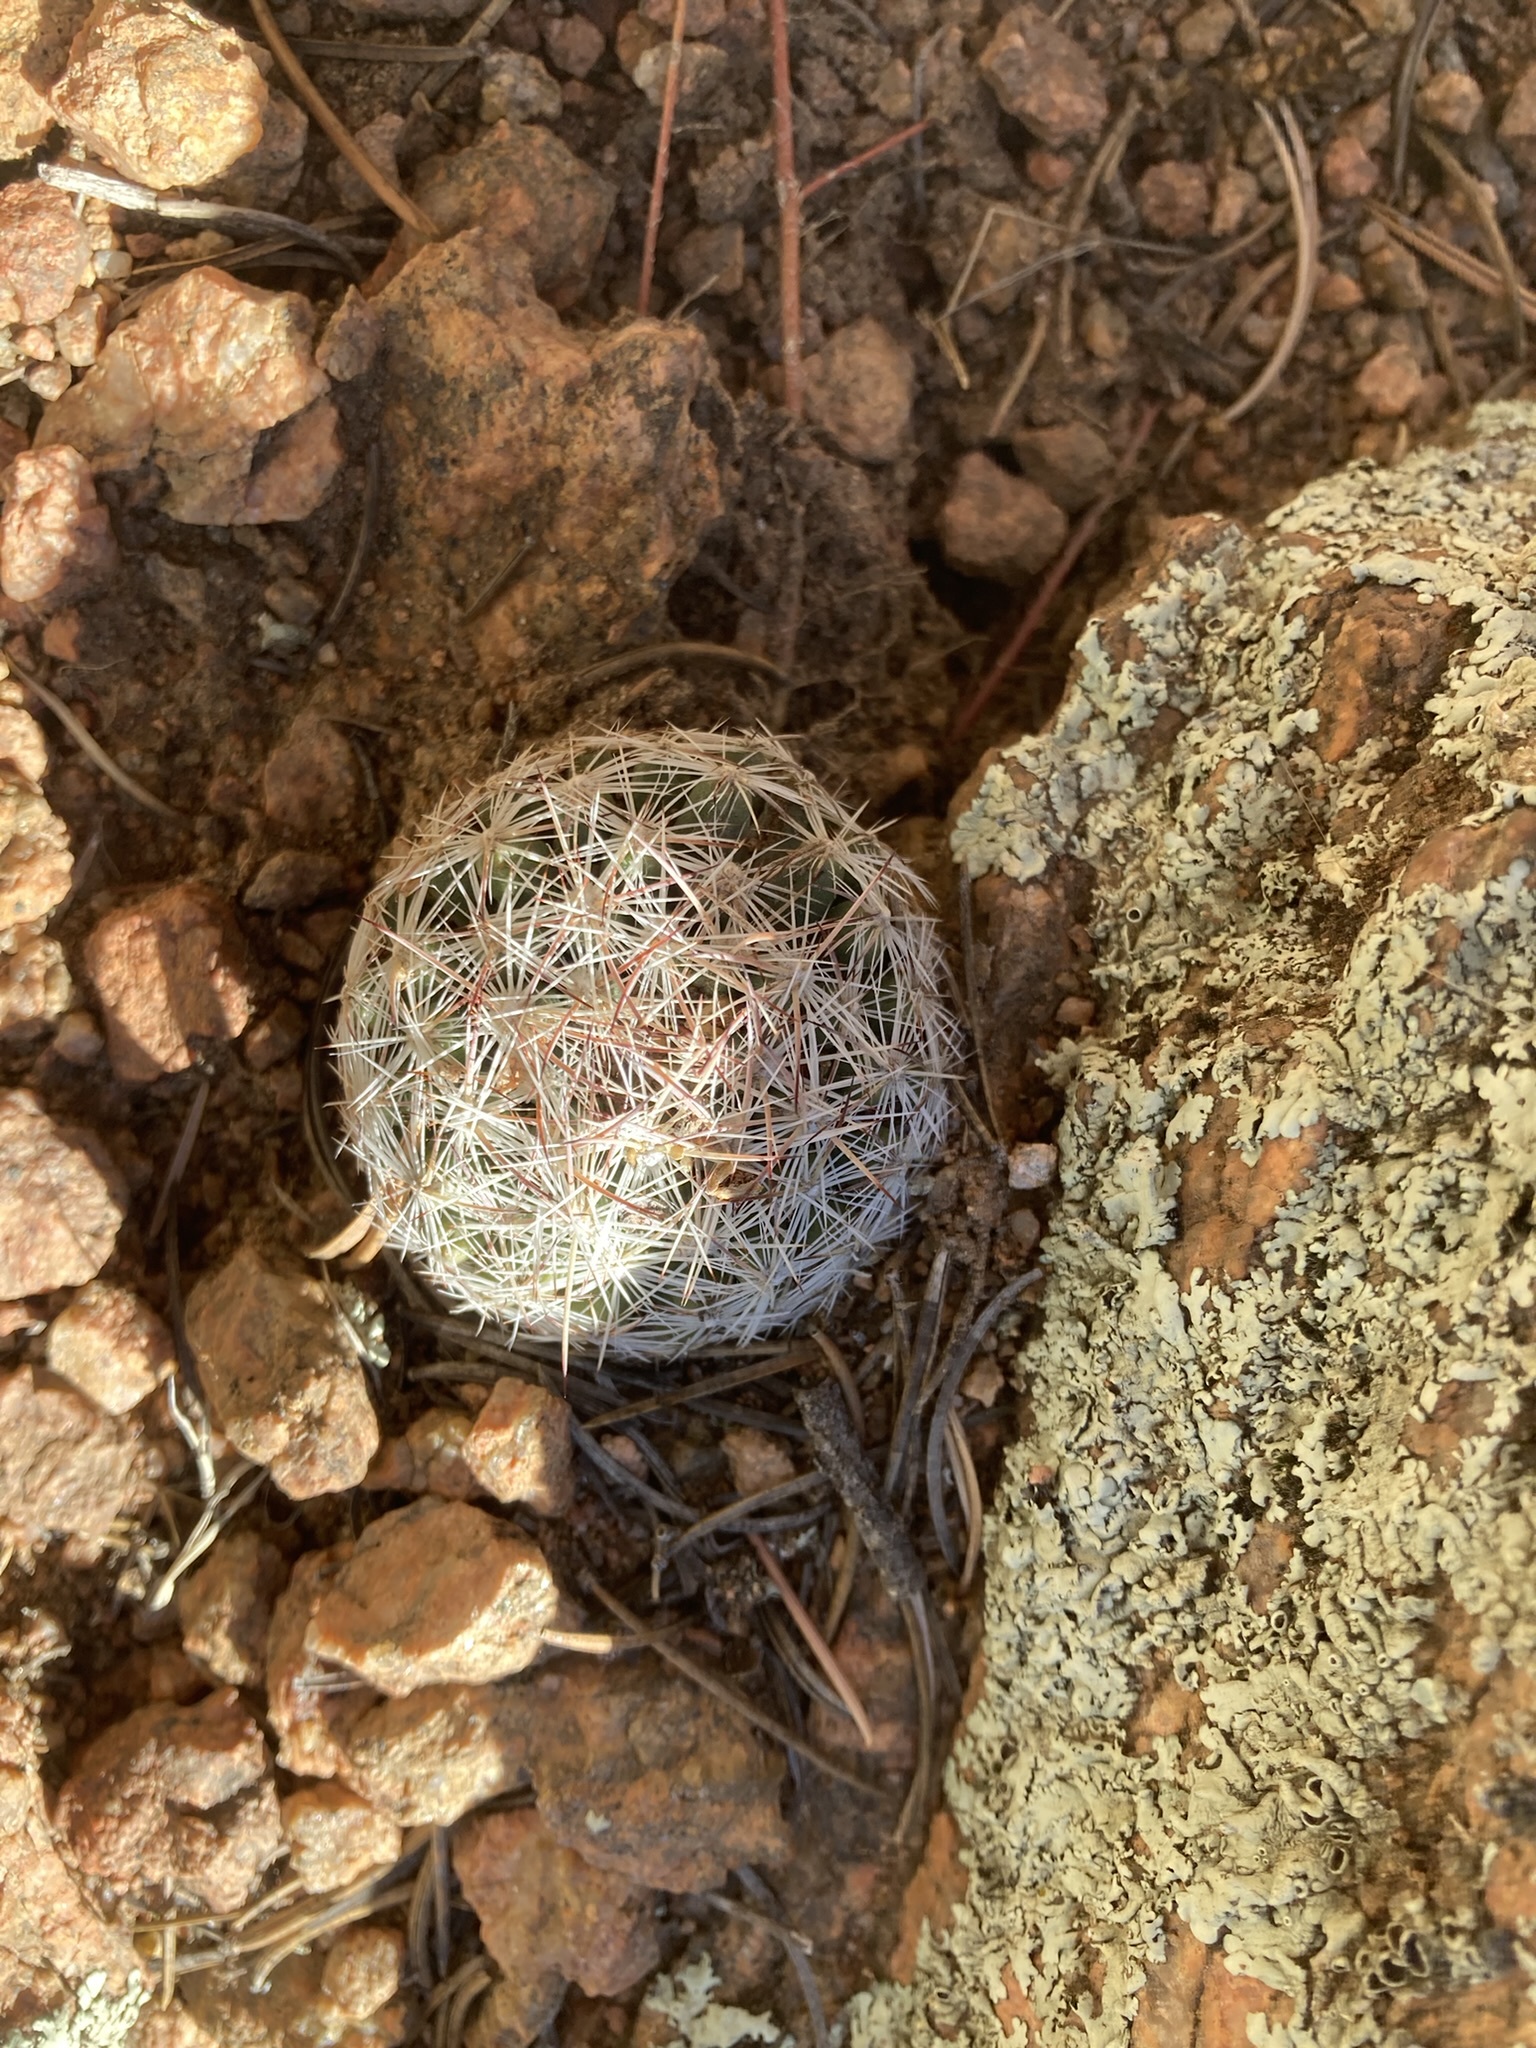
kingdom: Plantae
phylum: Tracheophyta
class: Magnoliopsida
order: Caryophyllales
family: Cactaceae
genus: Pelecyphora
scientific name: Pelecyphora vivipara
